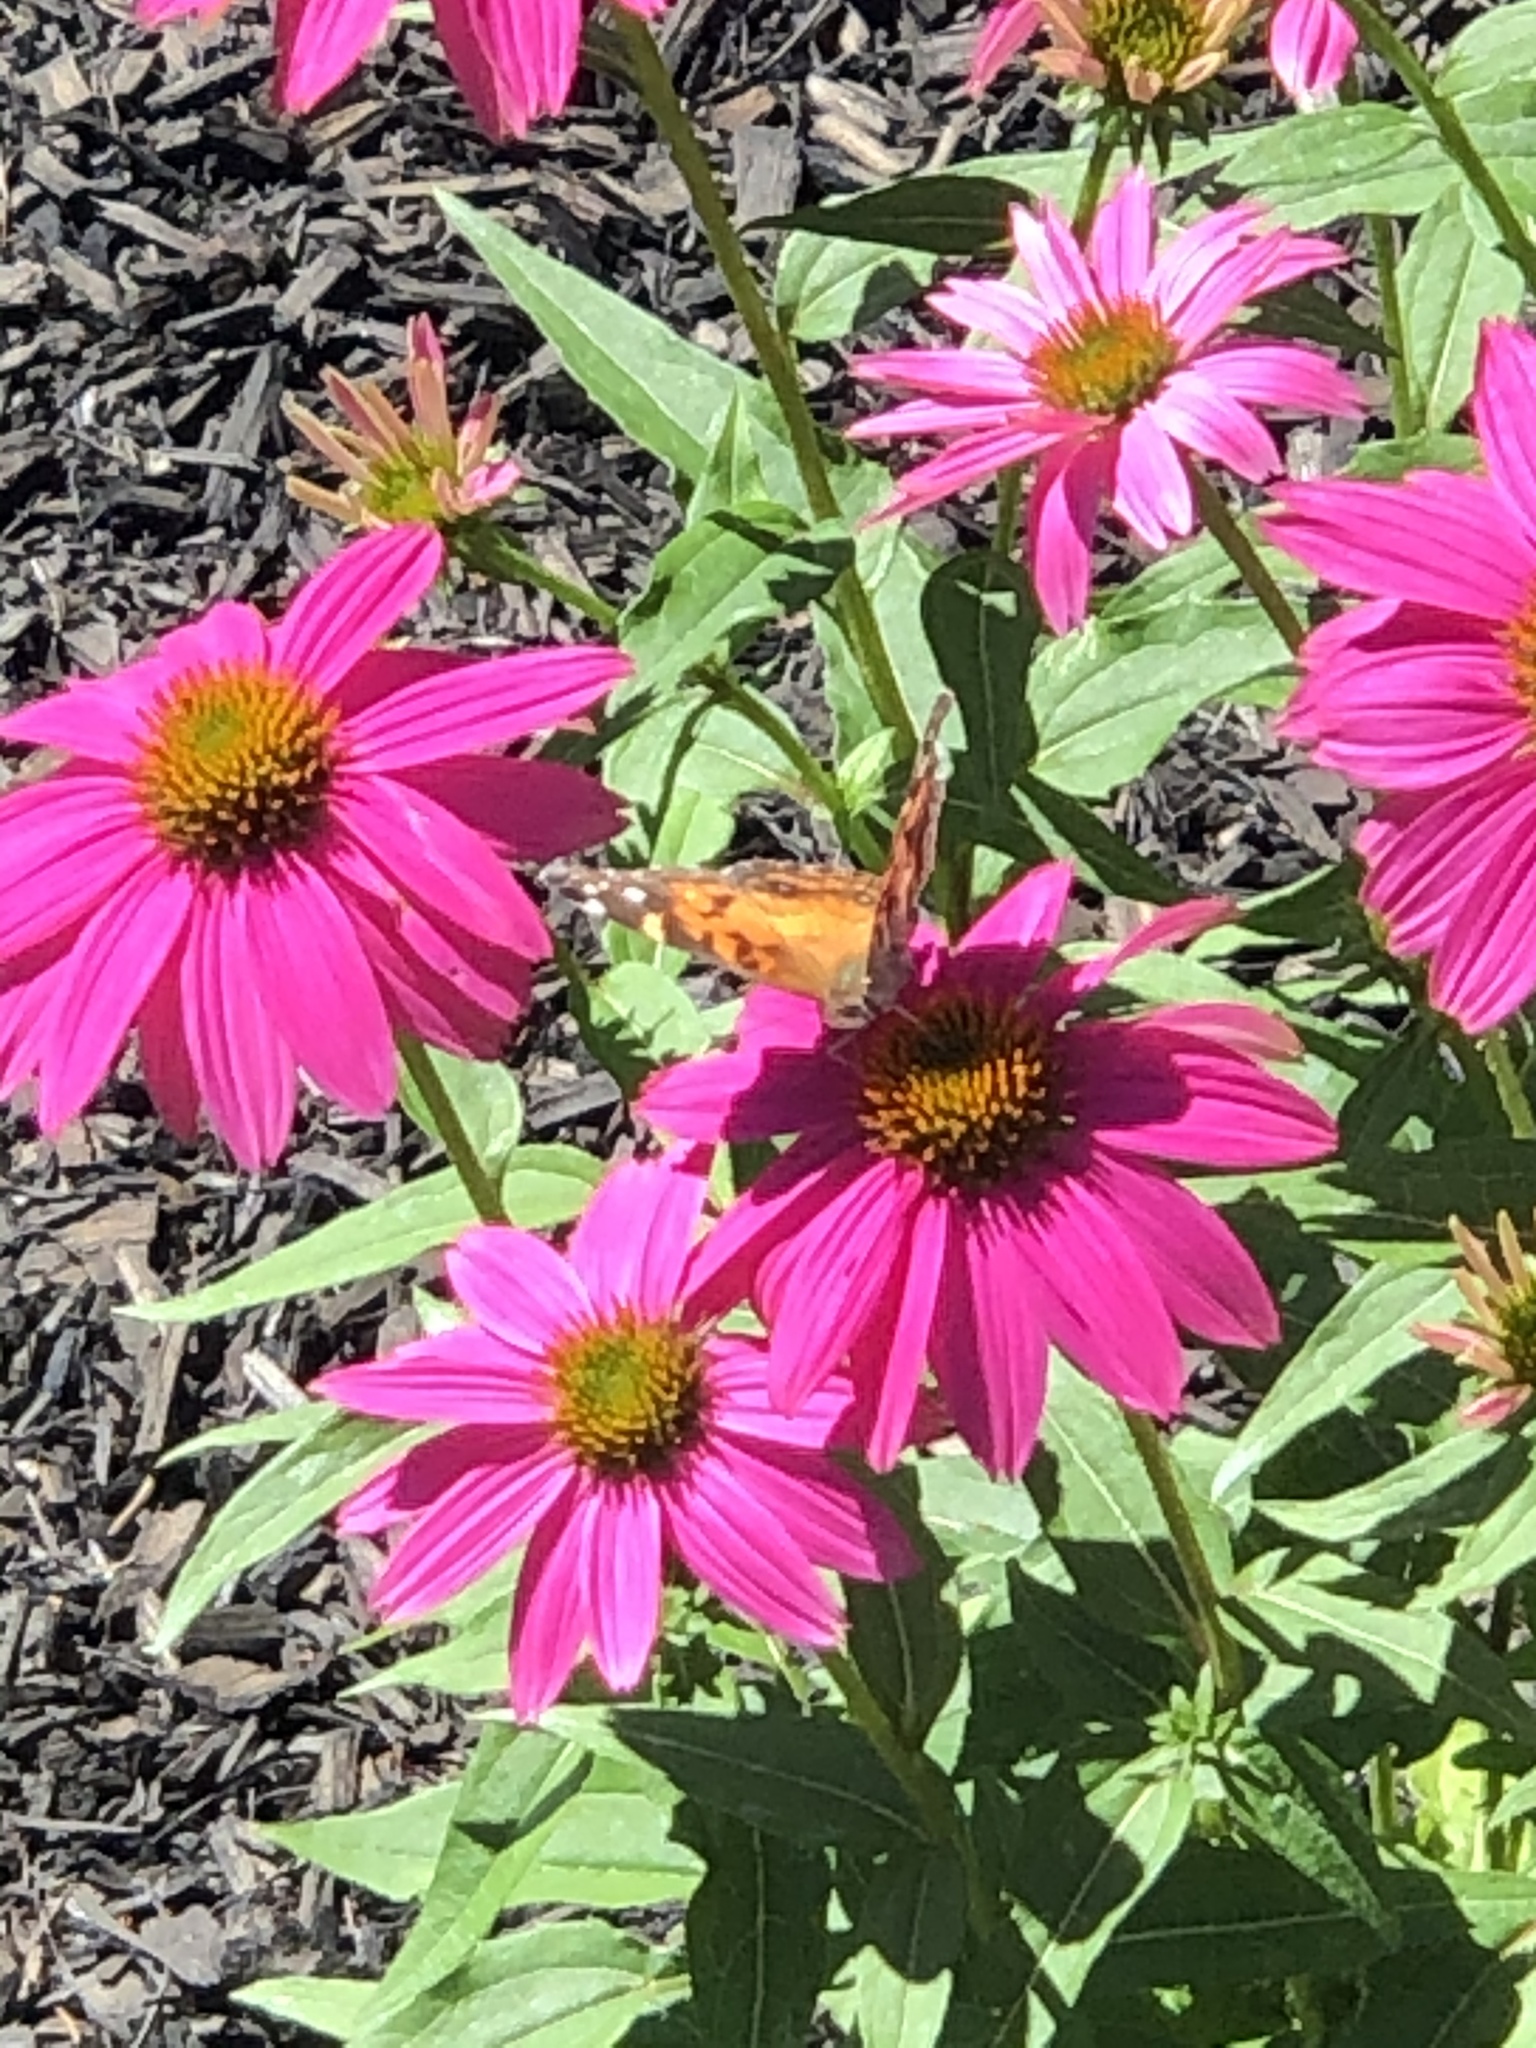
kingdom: Animalia
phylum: Arthropoda
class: Insecta
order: Lepidoptera
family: Nymphalidae
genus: Vanessa
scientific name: Vanessa virginiensis
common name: American lady
